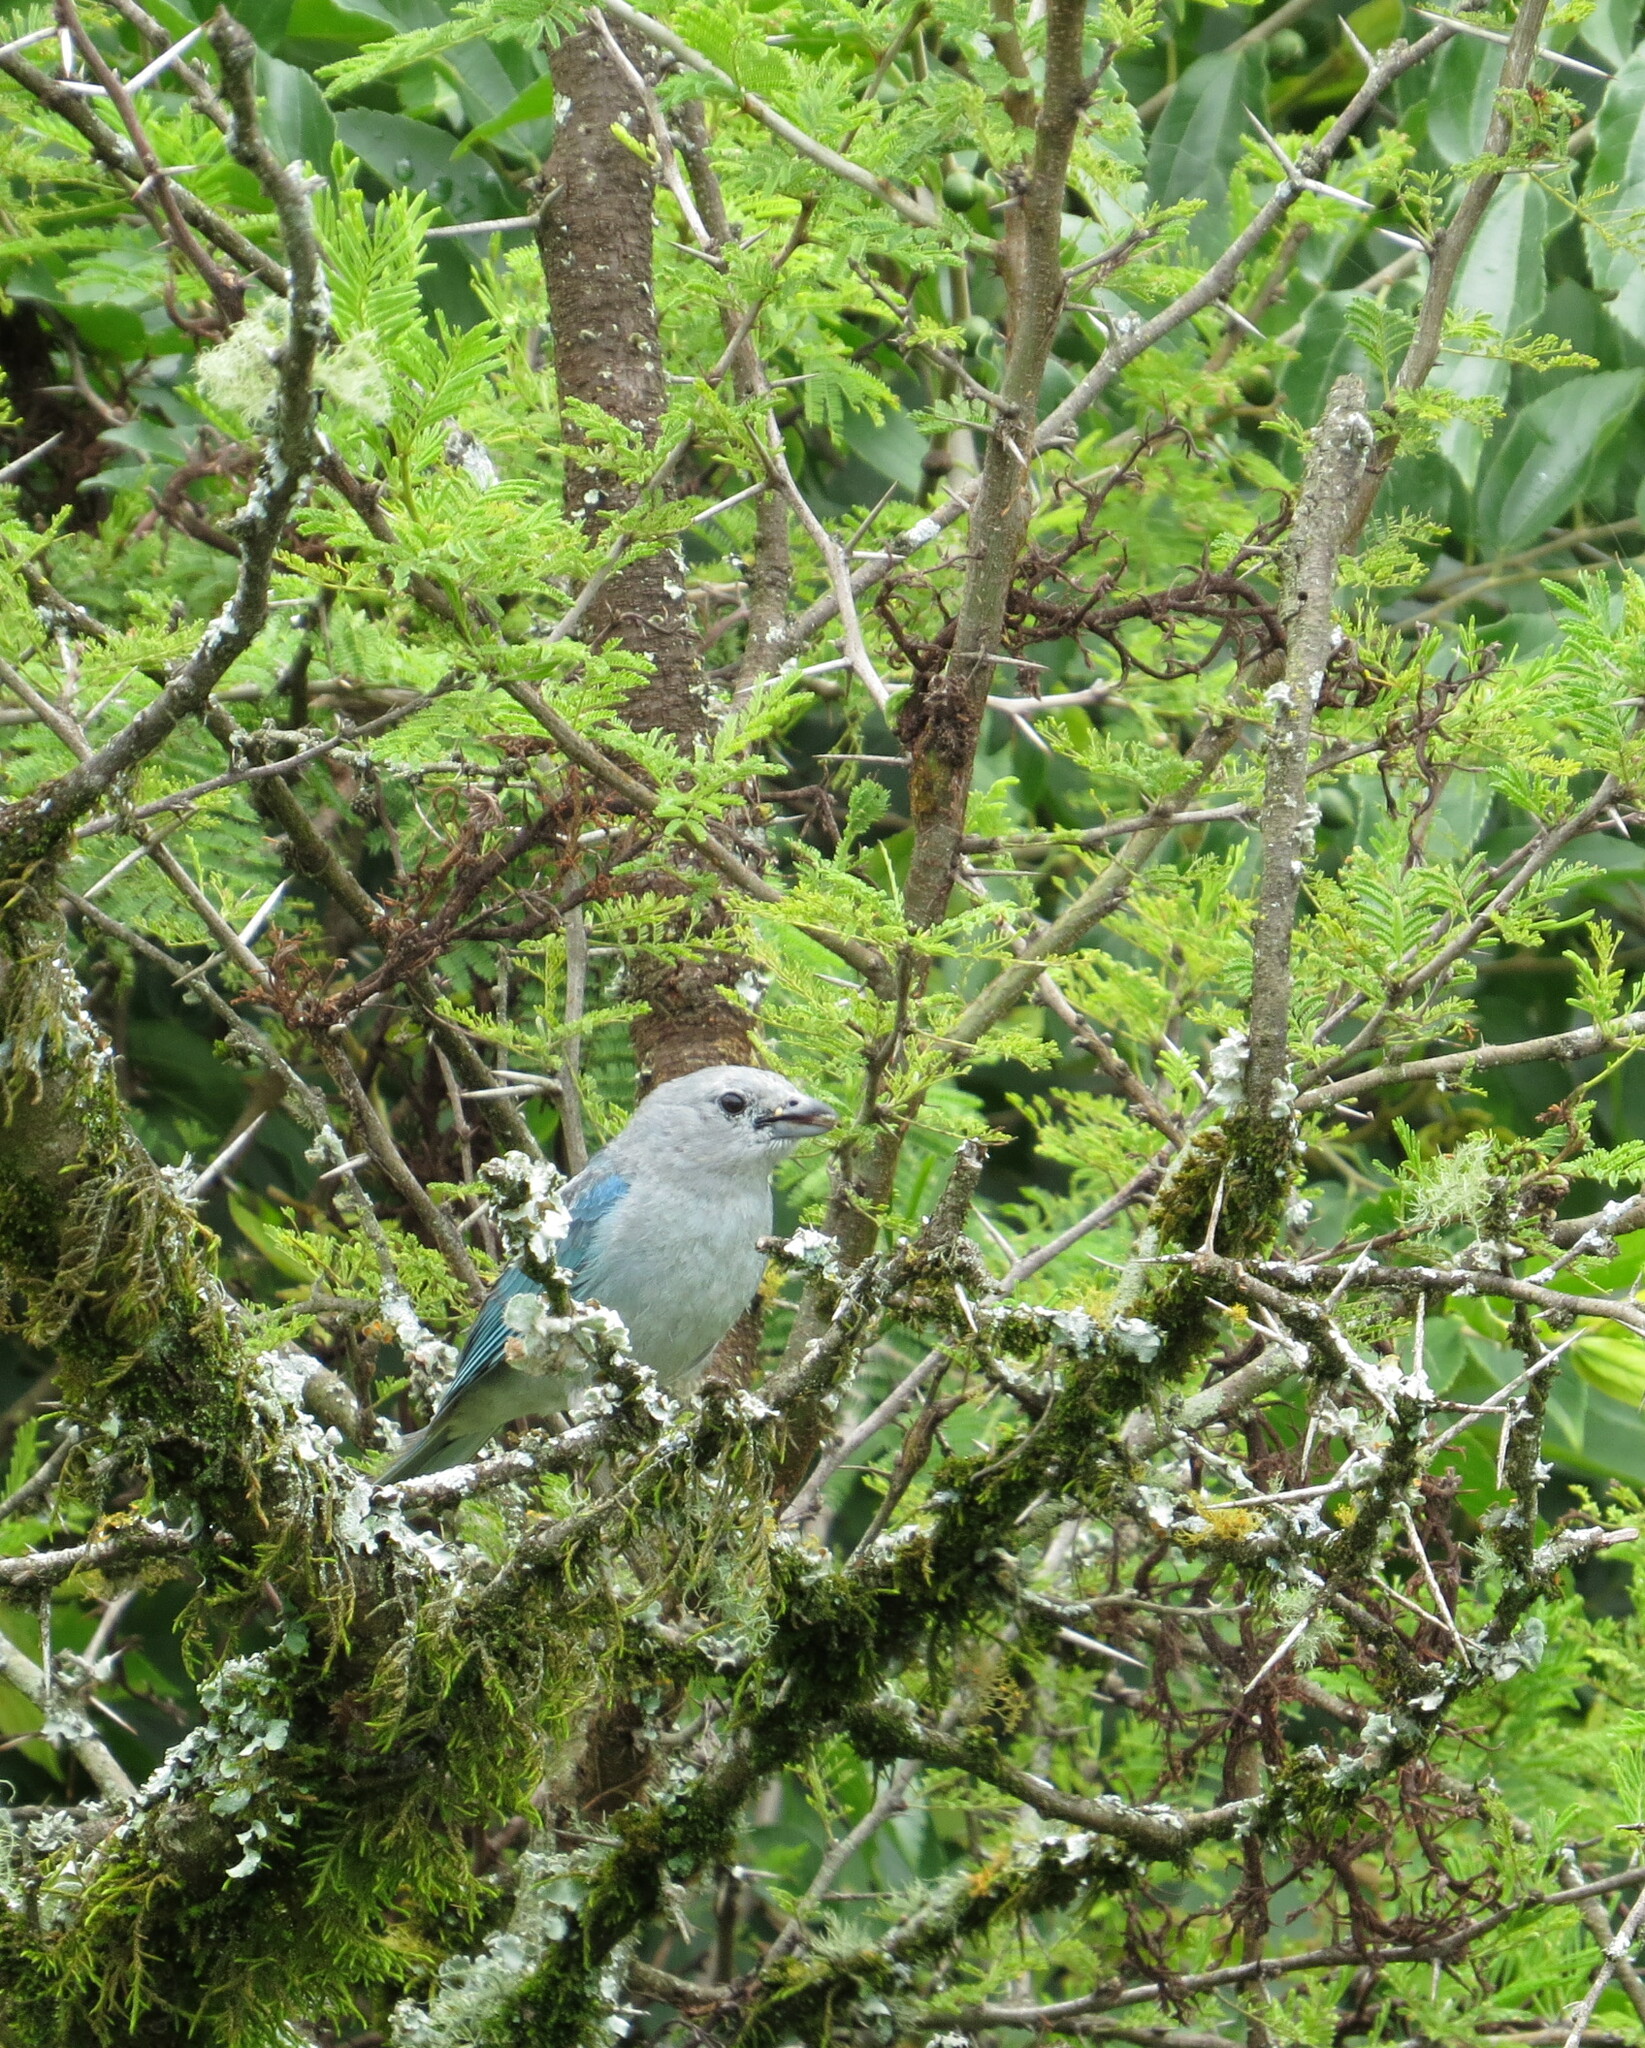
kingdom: Animalia
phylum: Chordata
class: Aves
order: Passeriformes
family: Thraupidae
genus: Thraupis
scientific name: Thraupis sayaca
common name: Sayaca tanager
